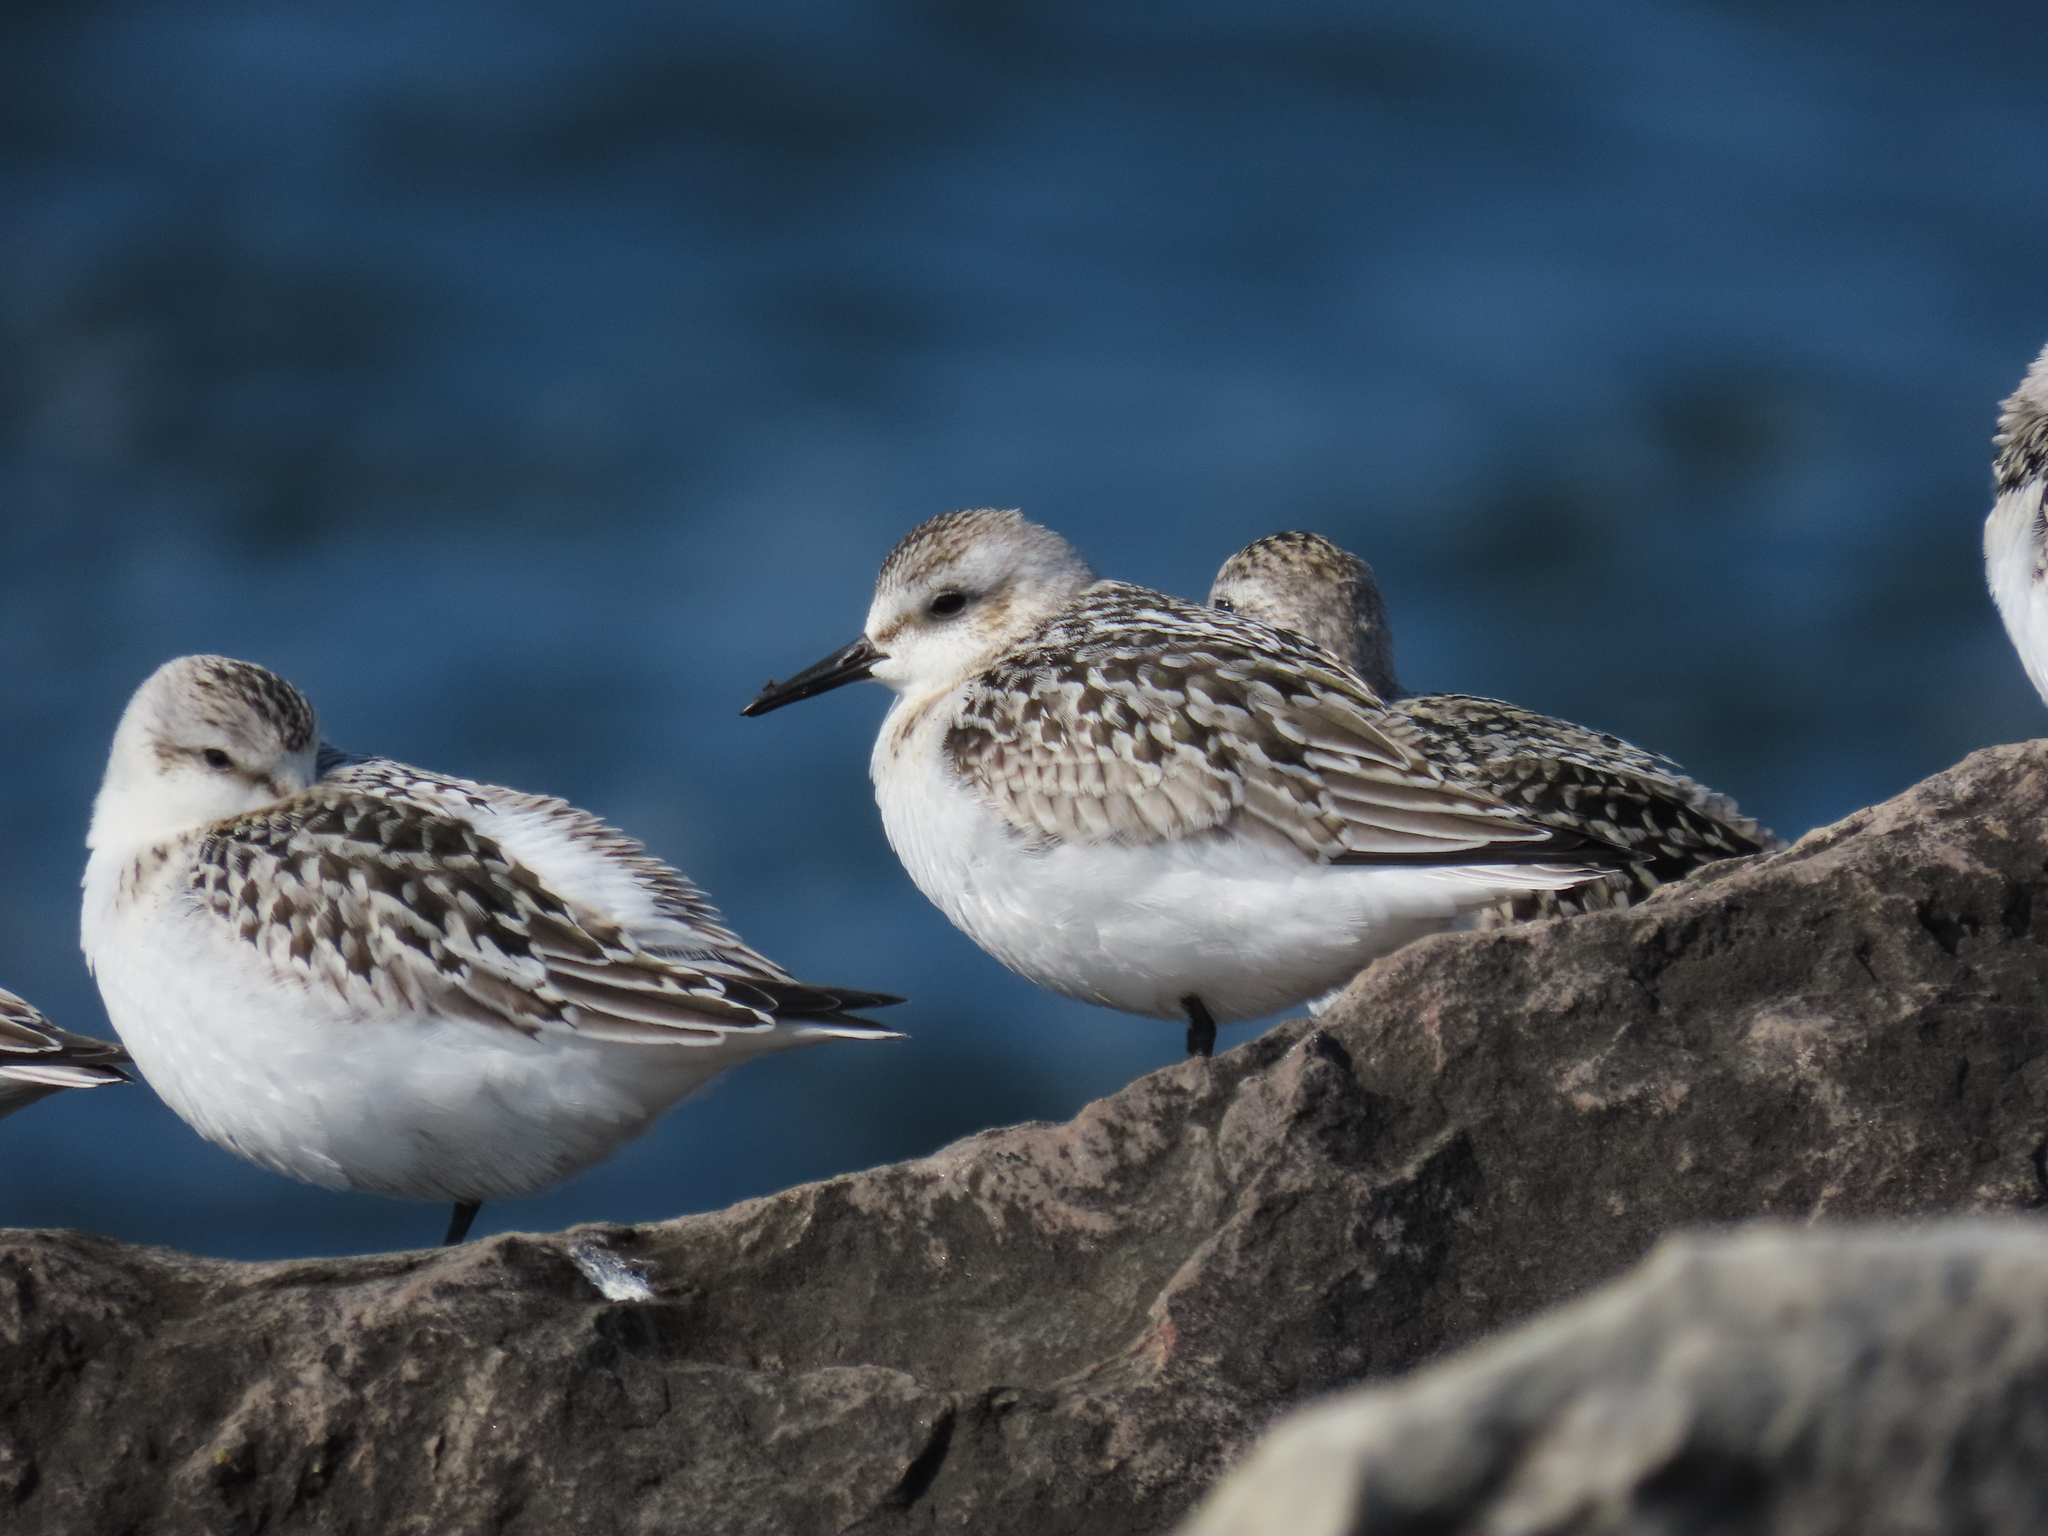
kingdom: Animalia
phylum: Chordata
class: Aves
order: Charadriiformes
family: Scolopacidae
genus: Calidris
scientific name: Calidris alba
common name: Sanderling
